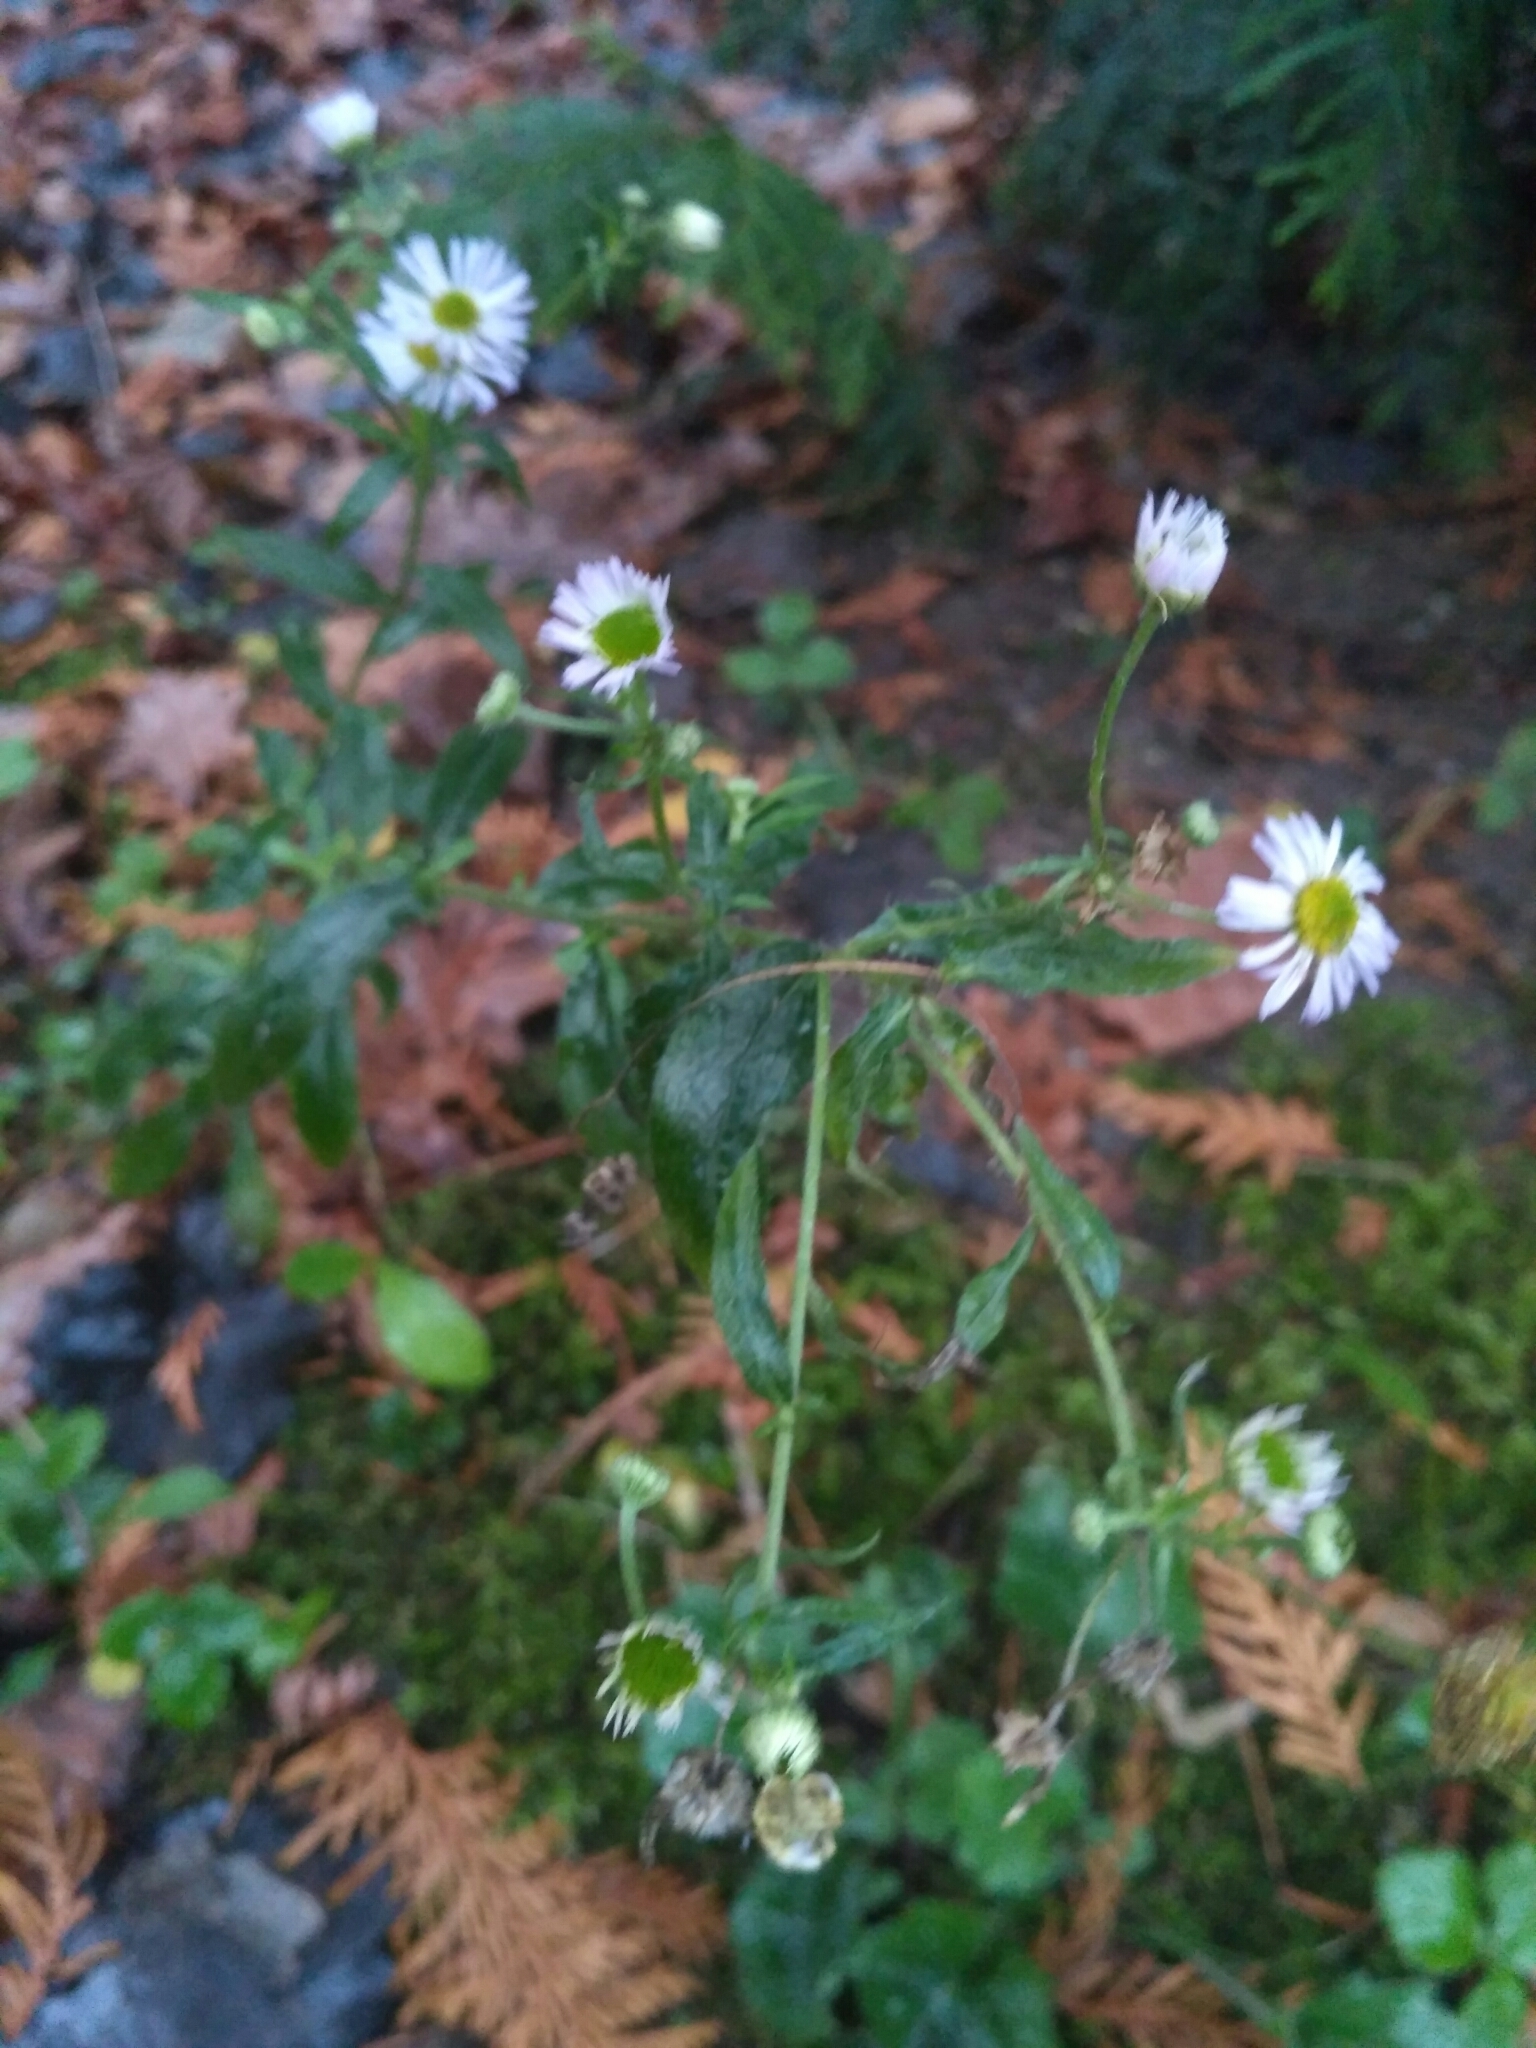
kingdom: Plantae
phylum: Tracheophyta
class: Magnoliopsida
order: Asterales
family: Asteraceae
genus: Erigeron
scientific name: Erigeron annuus
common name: Tall fleabane
